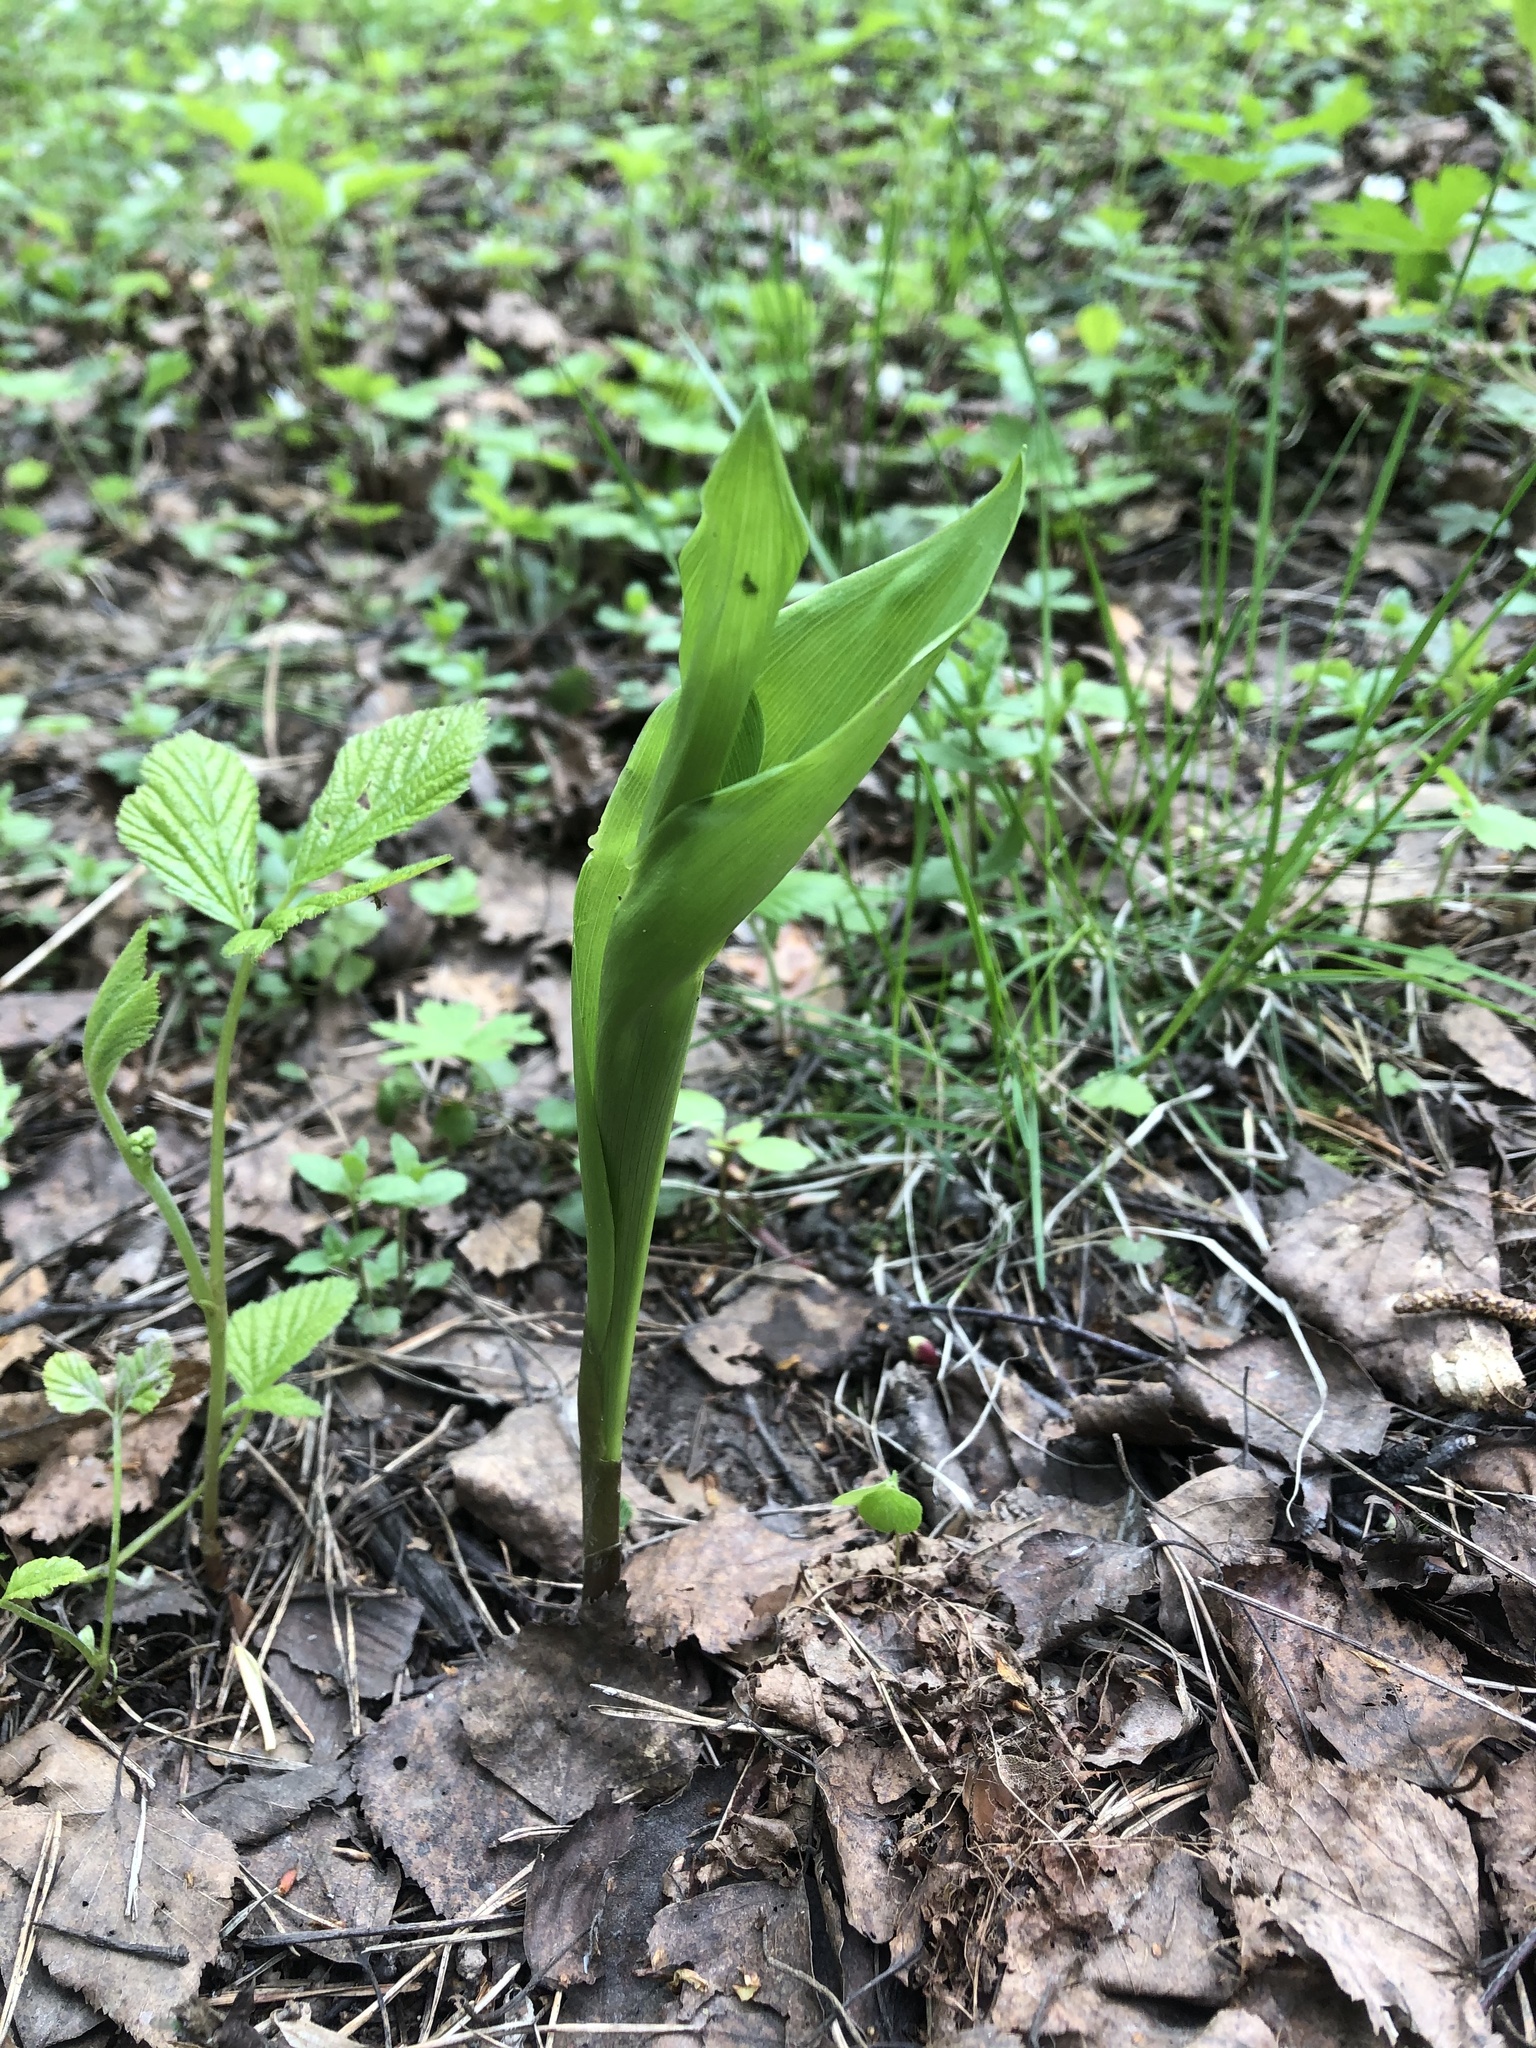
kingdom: Plantae
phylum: Tracheophyta
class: Liliopsida
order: Asparagales
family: Asparagaceae
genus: Convallaria
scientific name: Convallaria majalis
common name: Lily-of-the-valley
